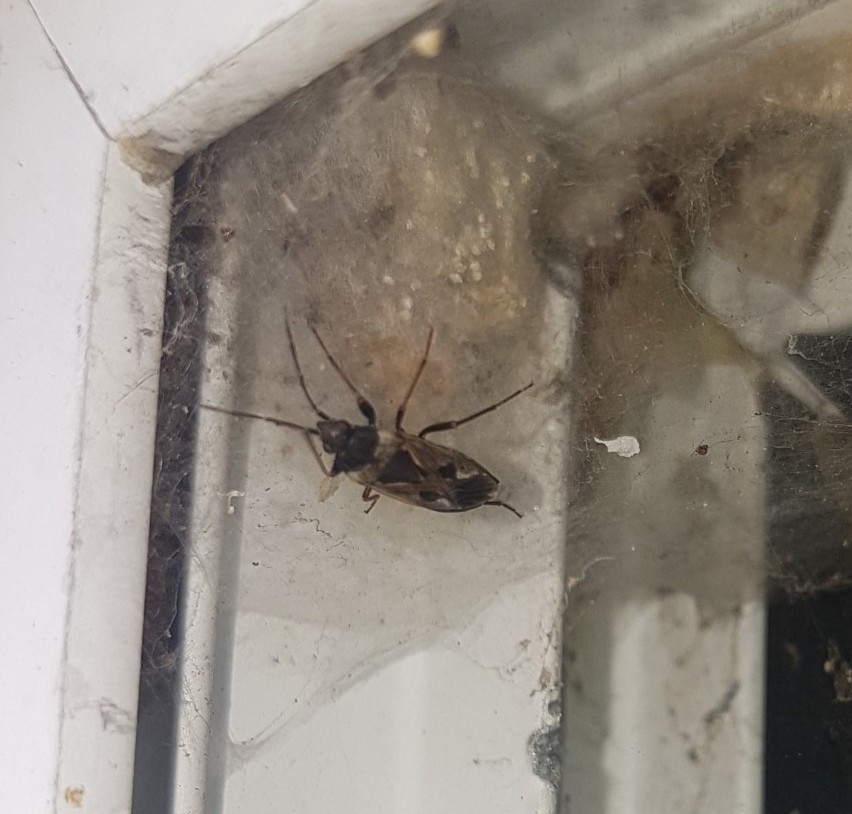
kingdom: Animalia
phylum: Arthropoda
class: Insecta
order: Hemiptera
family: Rhyparochromidae
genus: Rhyparochromus
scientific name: Rhyparochromus vulgaris
